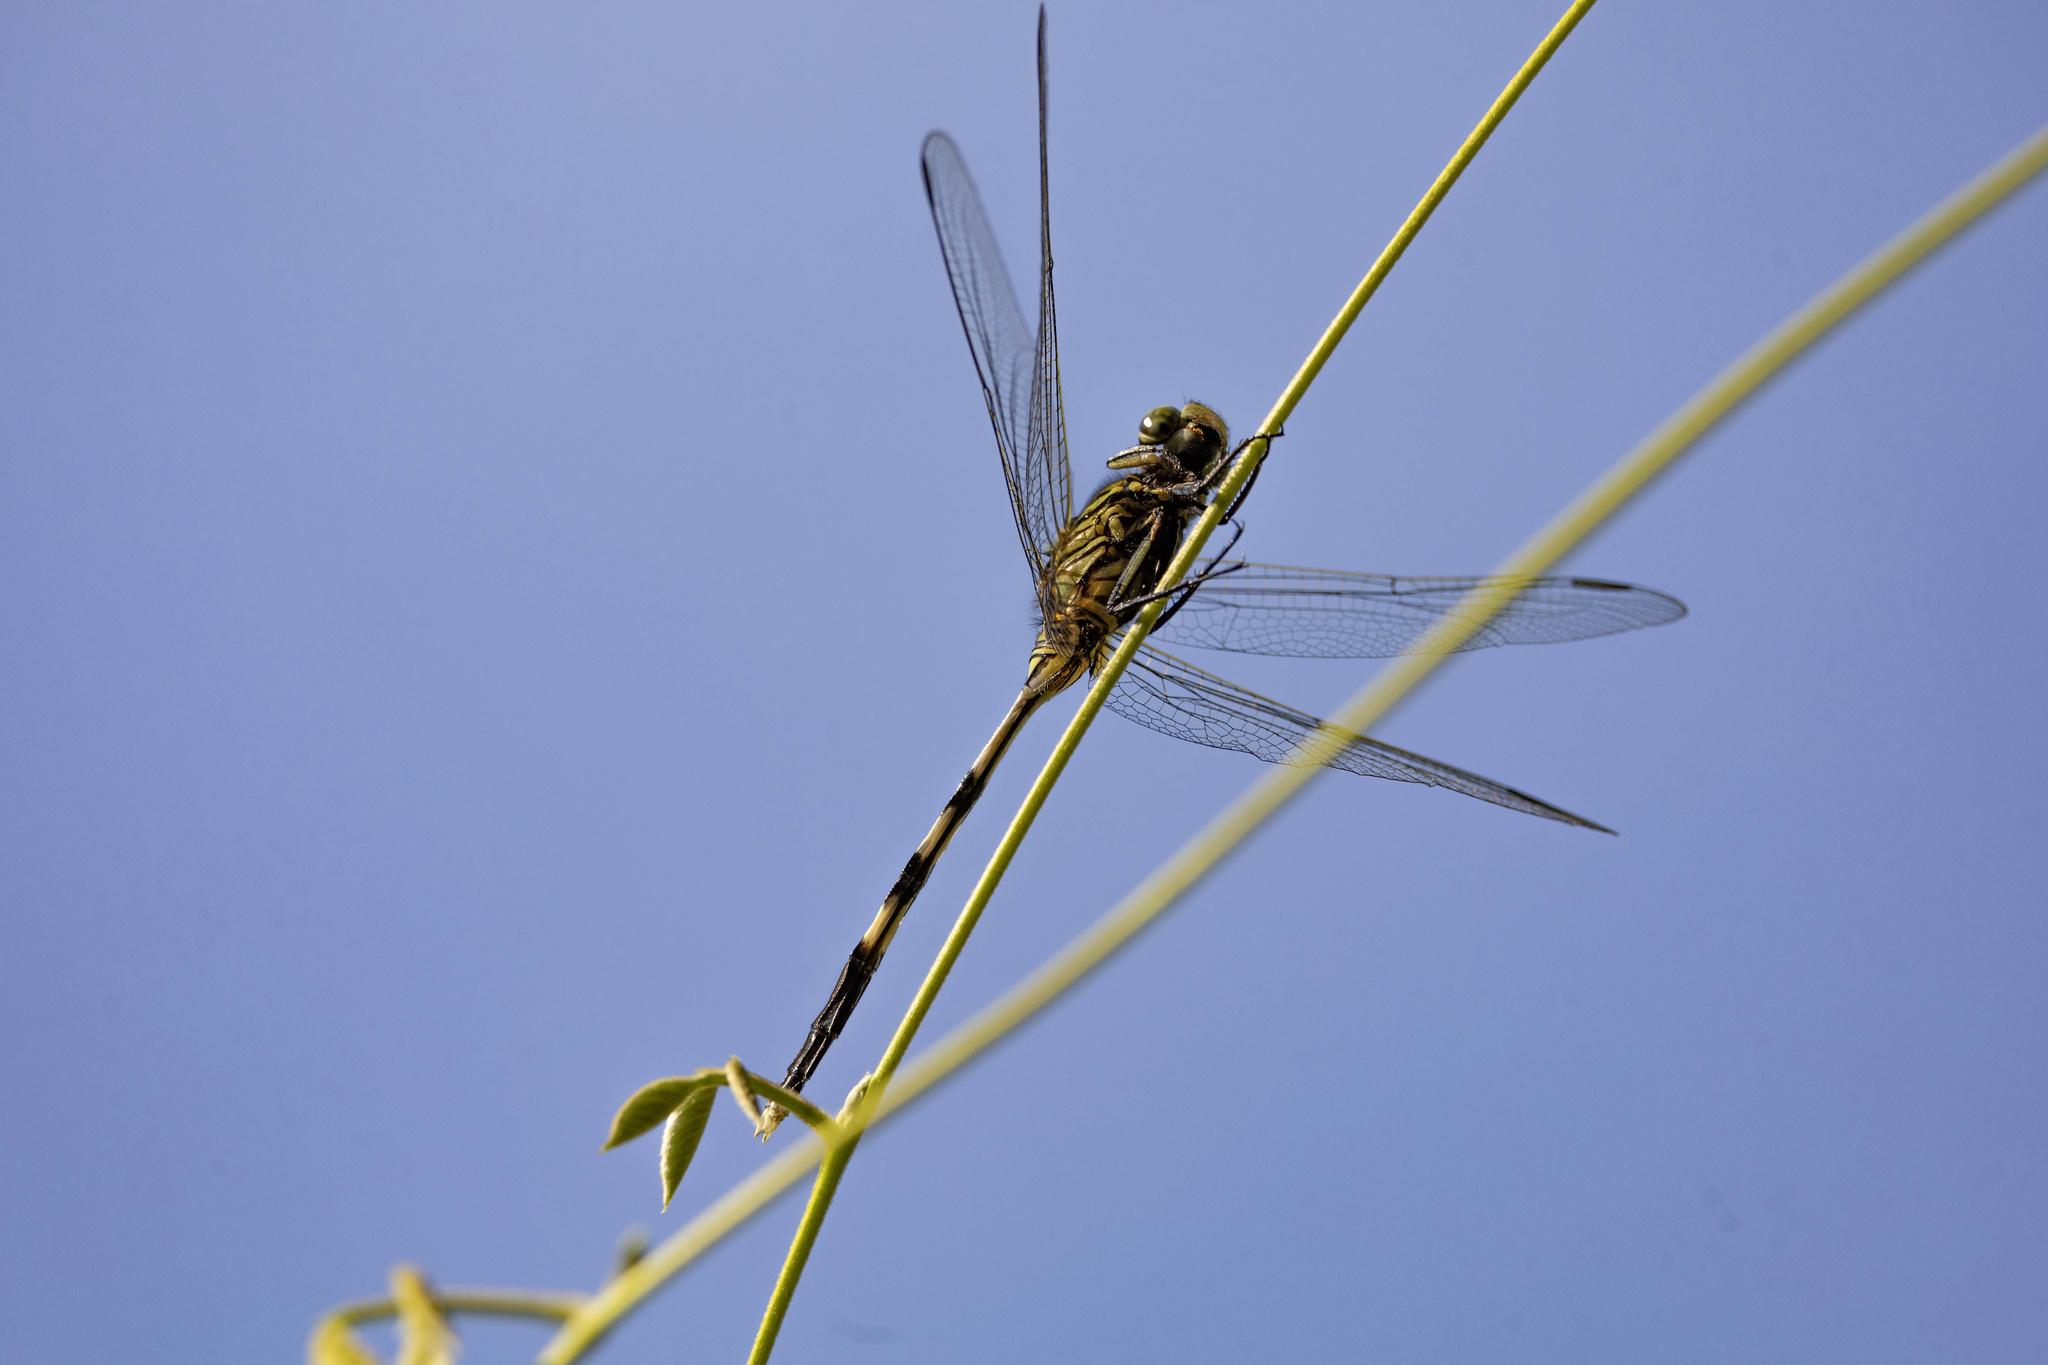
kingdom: Animalia
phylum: Arthropoda
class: Insecta
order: Odonata
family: Libellulidae
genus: Orthetrum
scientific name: Orthetrum sabina
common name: Slender skimmer
